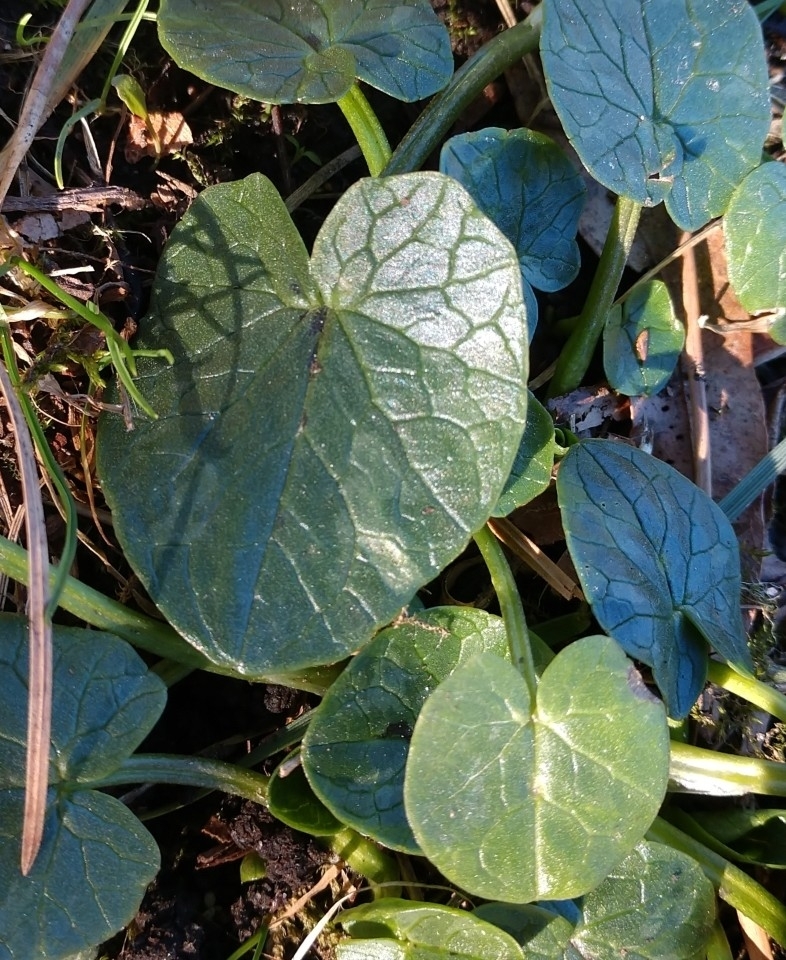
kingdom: Plantae
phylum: Tracheophyta
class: Magnoliopsida
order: Ranunculales
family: Ranunculaceae
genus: Ficaria
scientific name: Ficaria verna
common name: Lesser celandine
